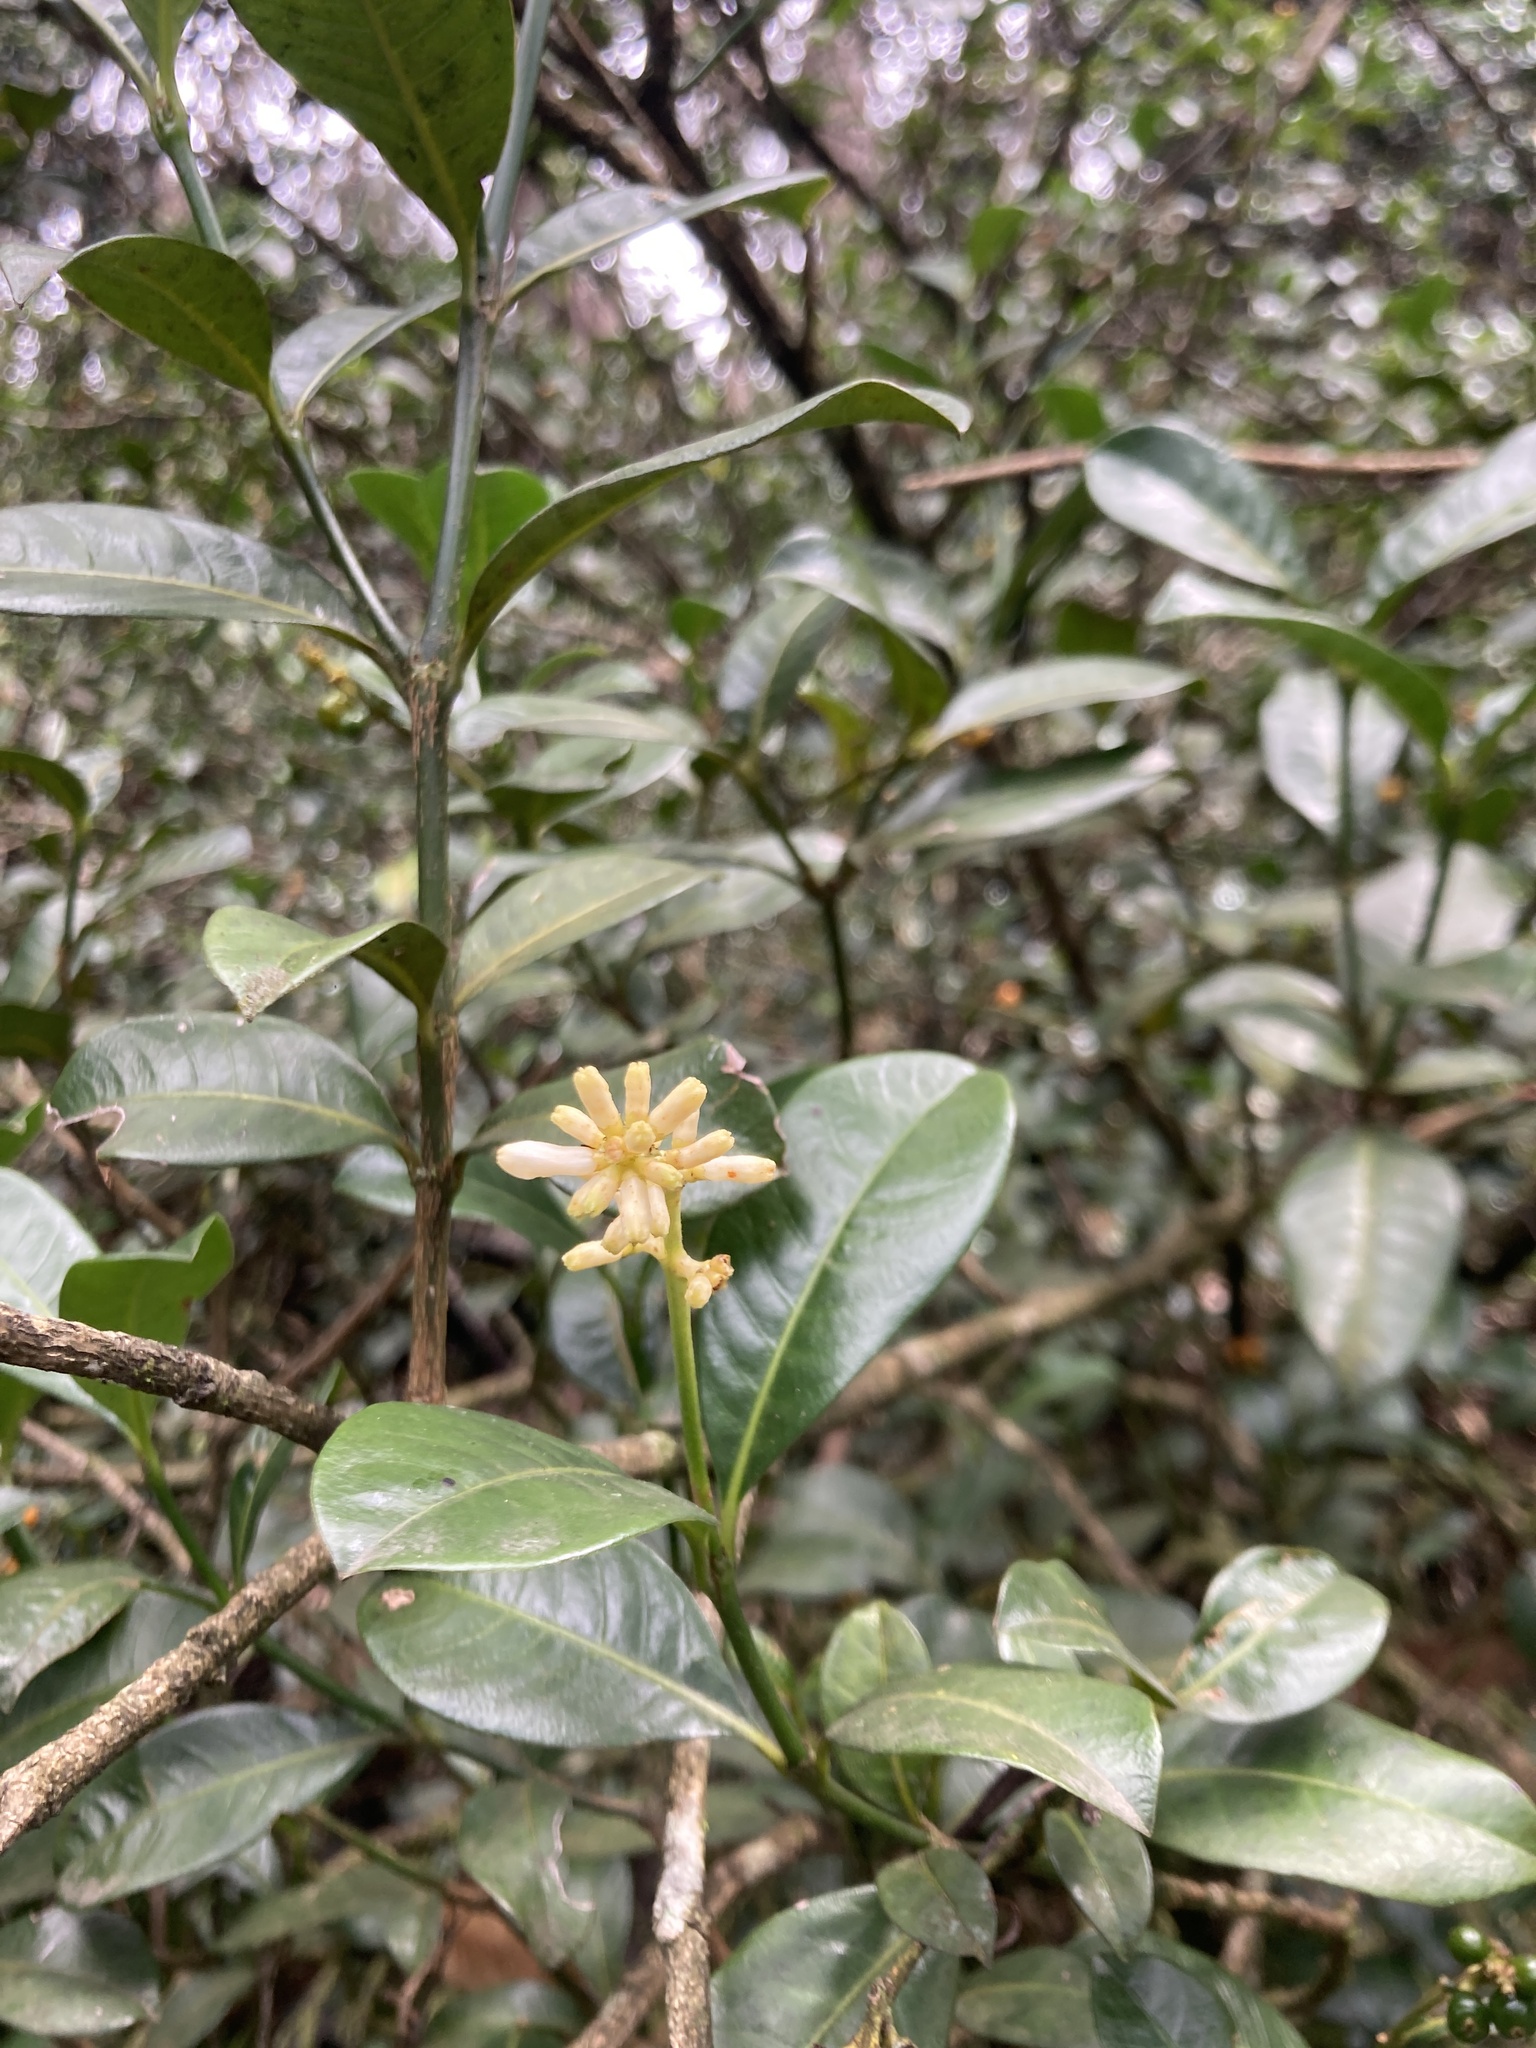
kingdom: Plantae
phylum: Tracheophyta
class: Magnoliopsida
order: Gentianales
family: Rubiaceae
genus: Palicourea
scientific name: Palicourea boqueronensis
